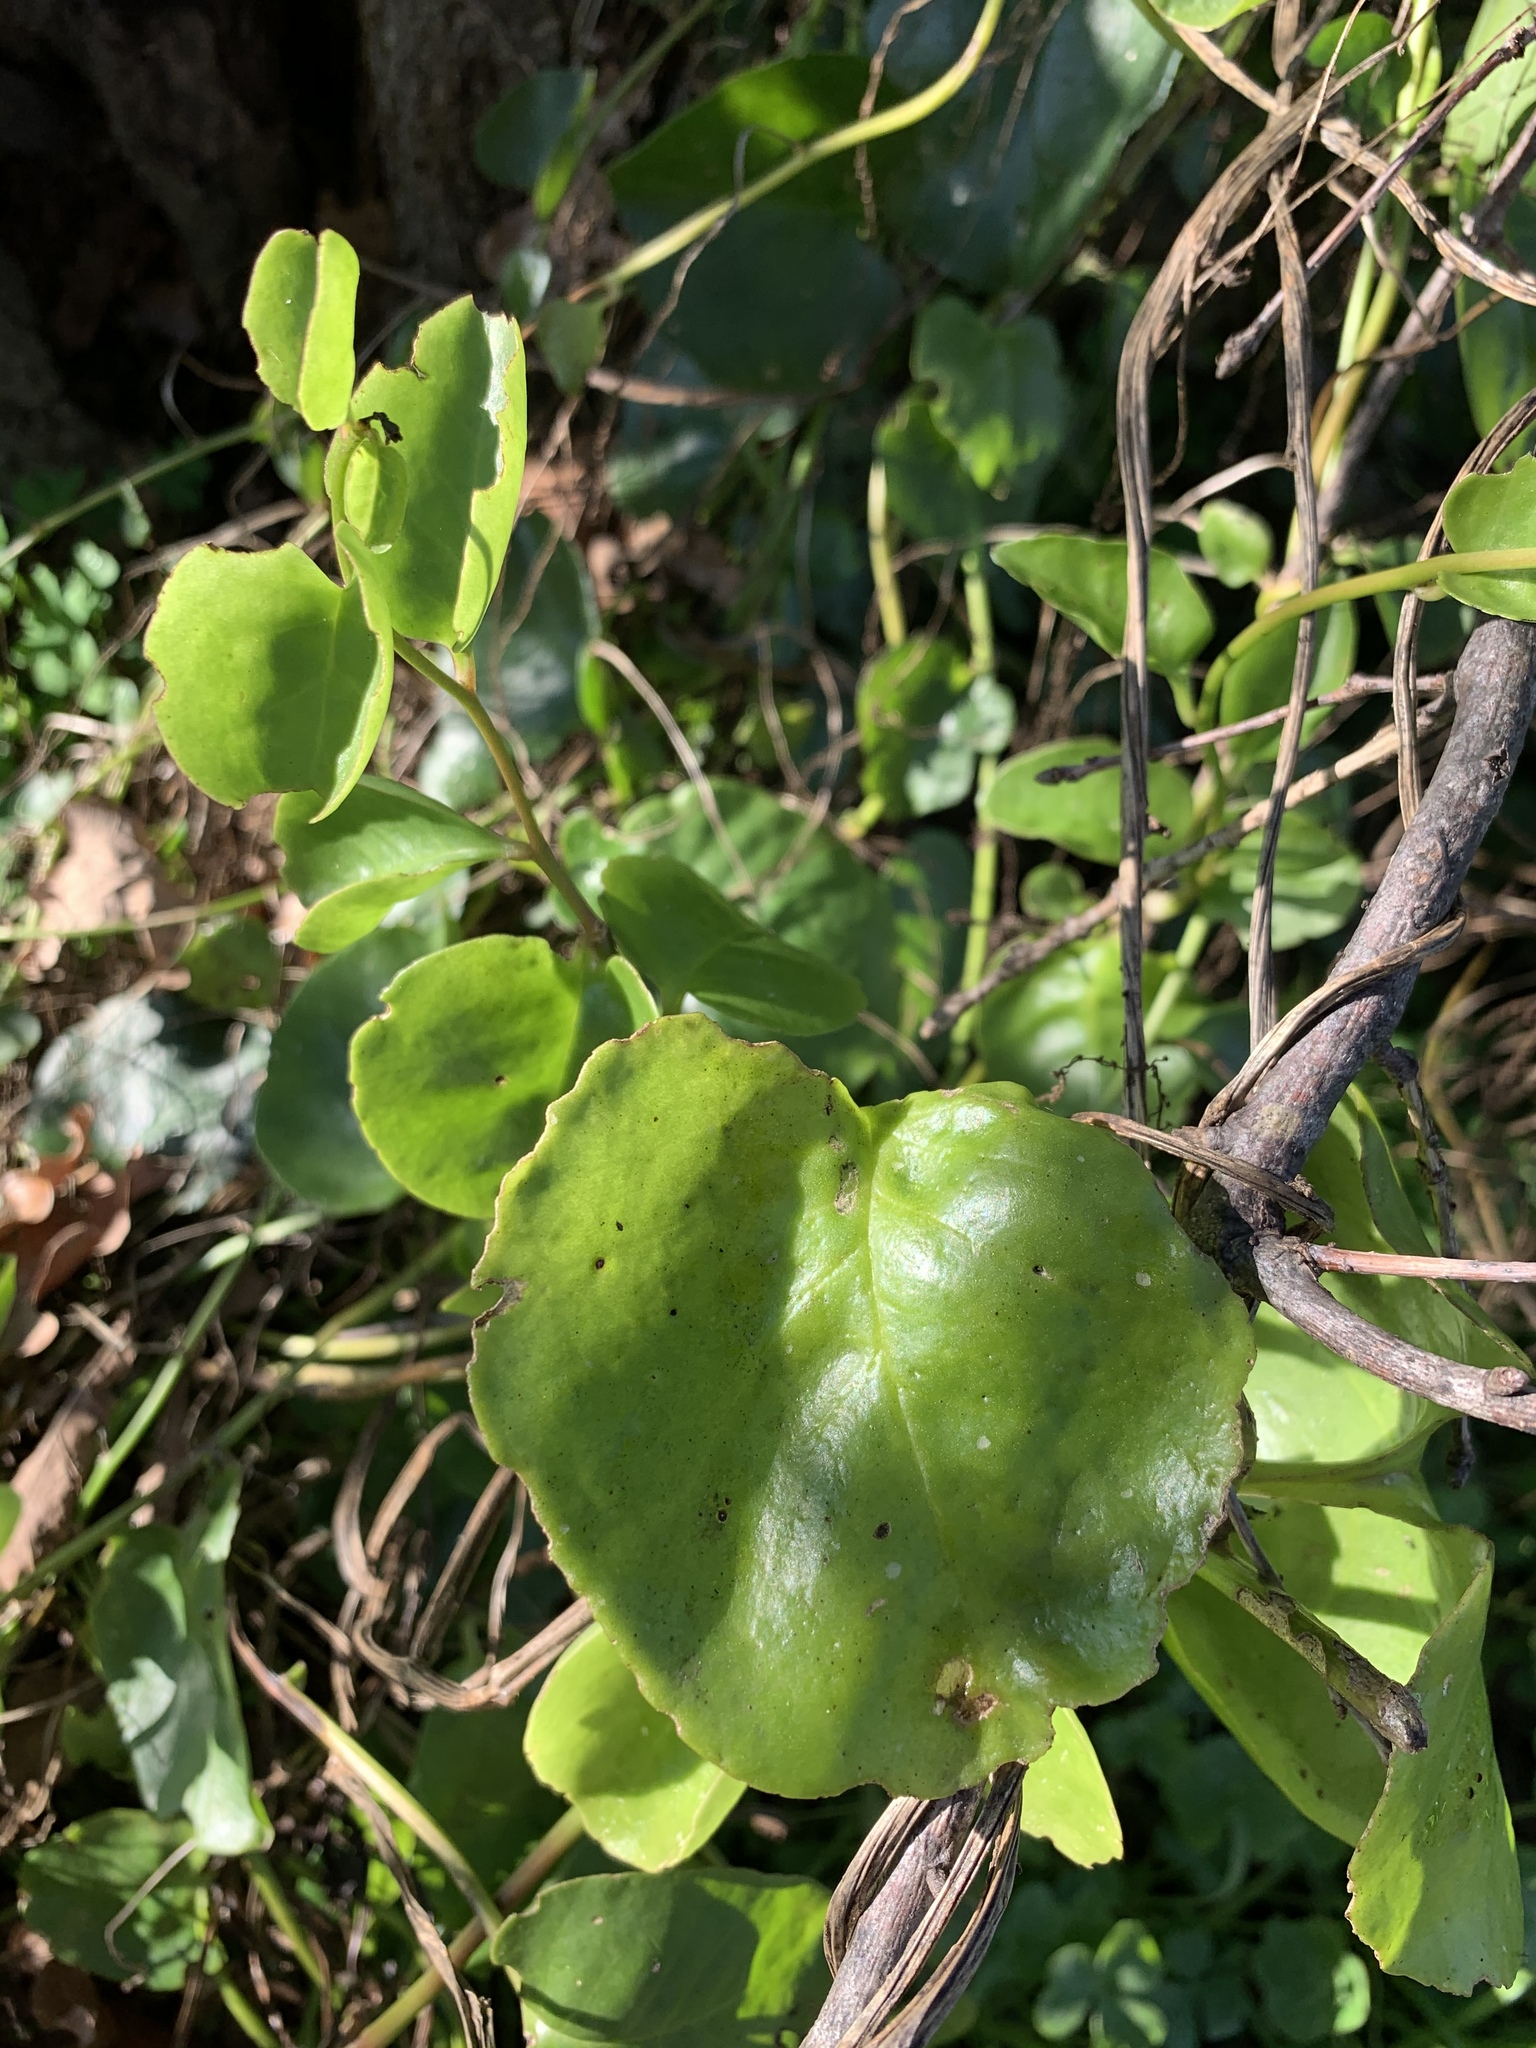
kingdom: Plantae
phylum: Tracheophyta
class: Magnoliopsida
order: Caryophyllales
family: Basellaceae
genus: Anredera
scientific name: Anredera cordifolia
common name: Heartleaf madeiravine
